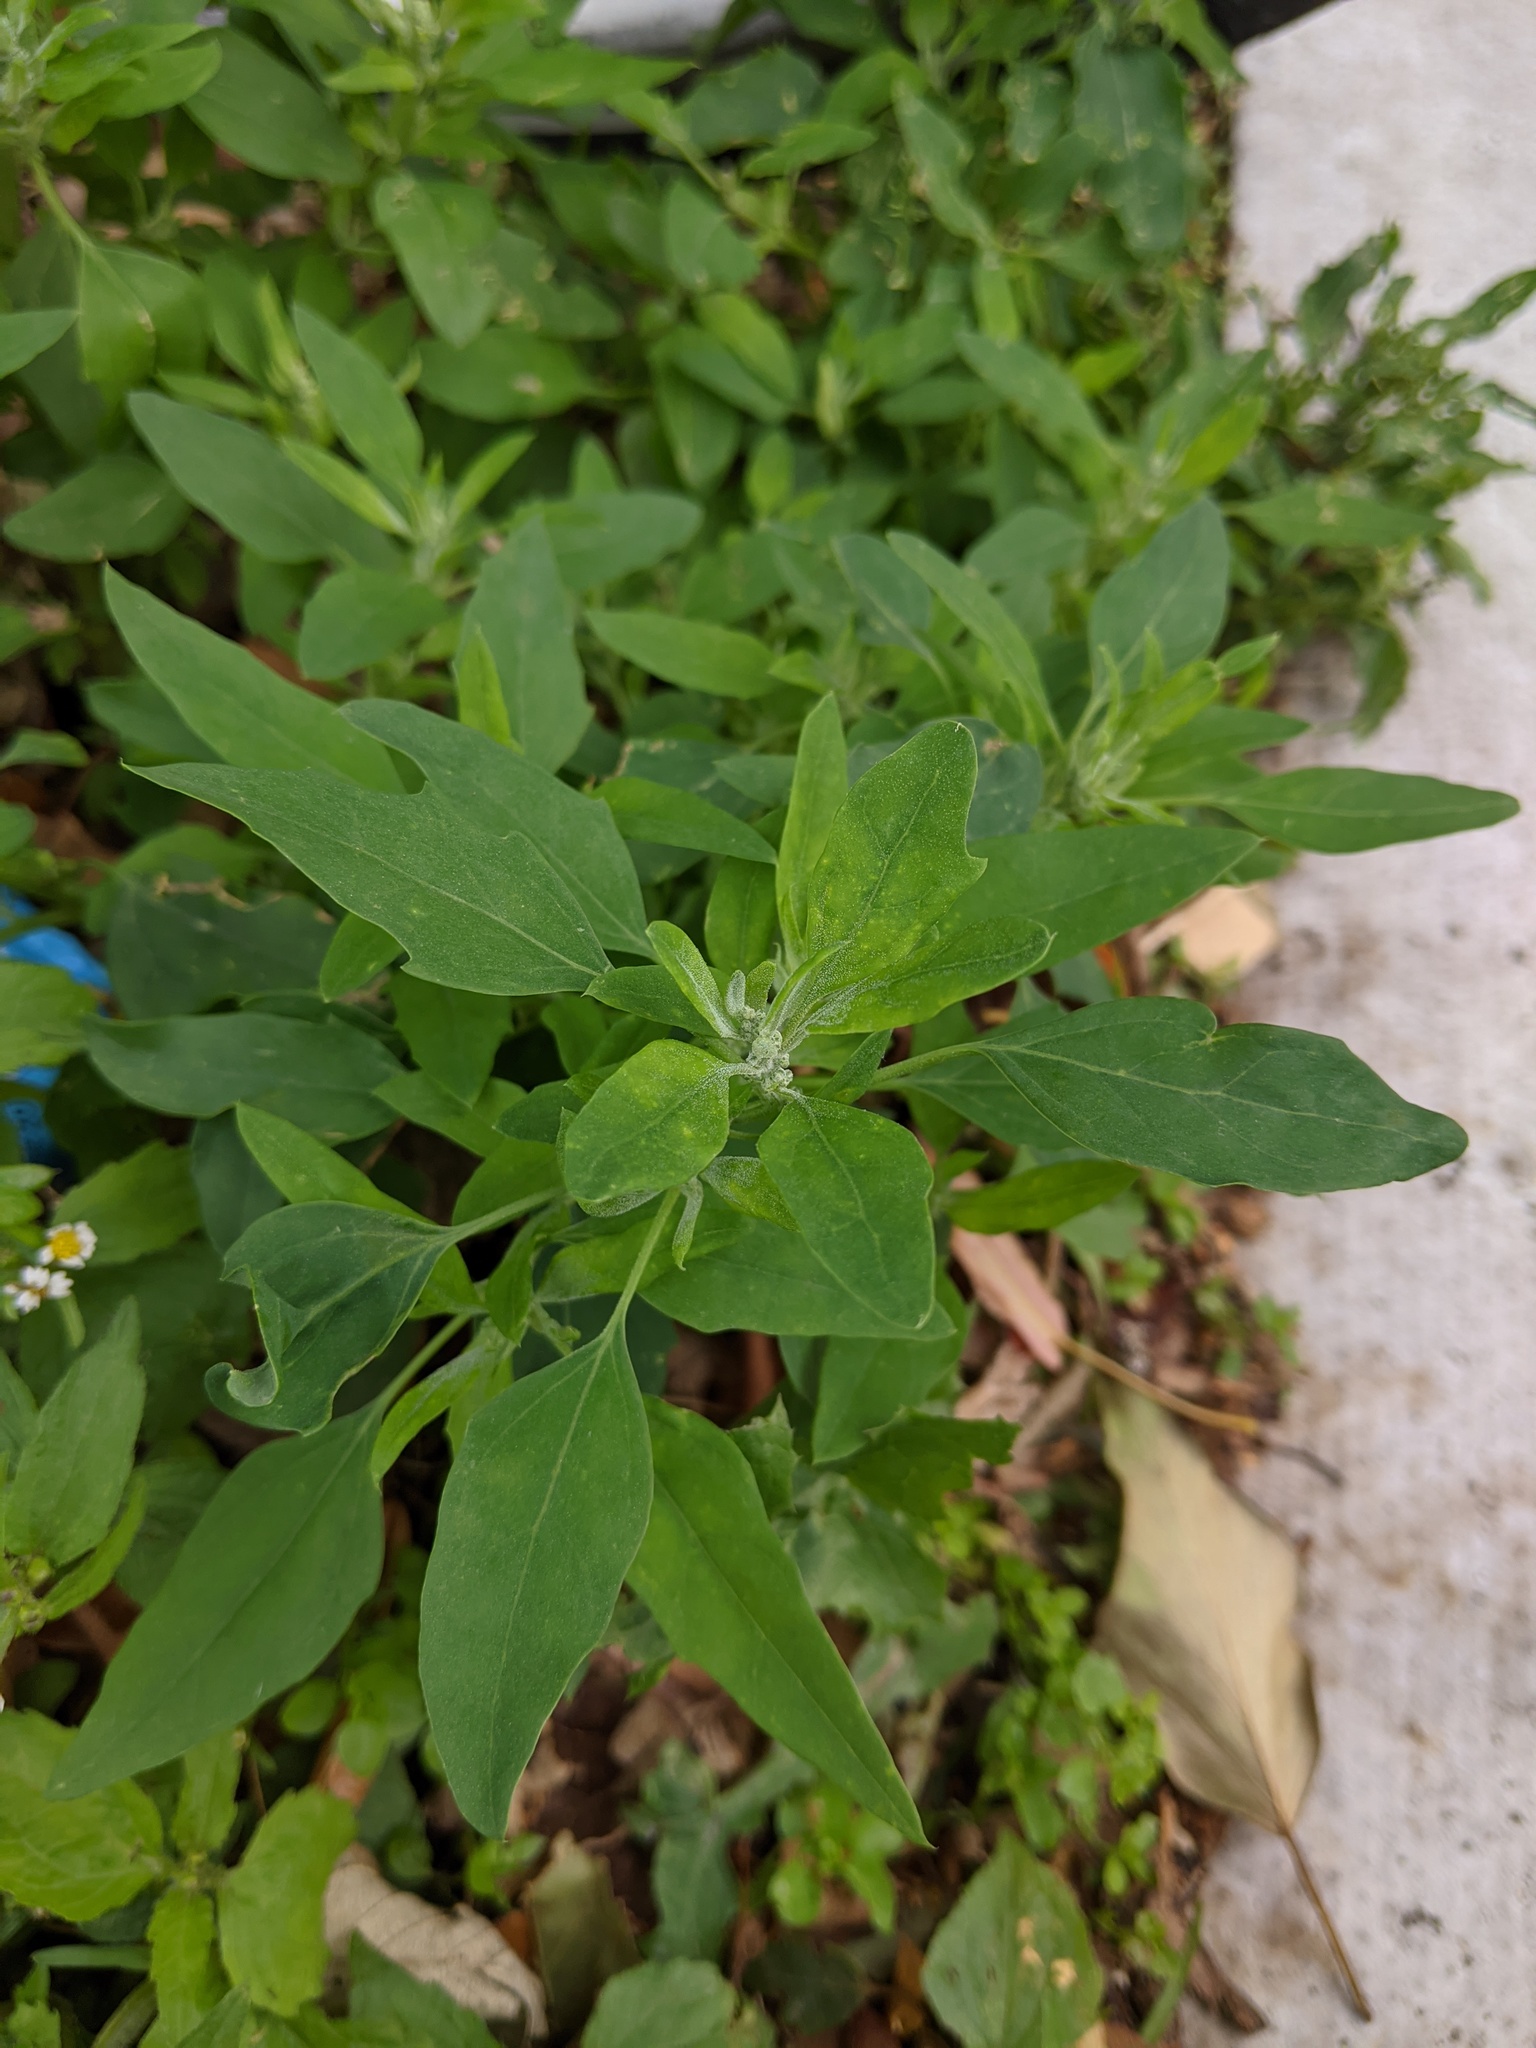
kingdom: Plantae
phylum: Tracheophyta
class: Magnoliopsida
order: Caryophyllales
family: Amaranthaceae
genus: Chenopodium
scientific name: Chenopodium album
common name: Fat-hen
